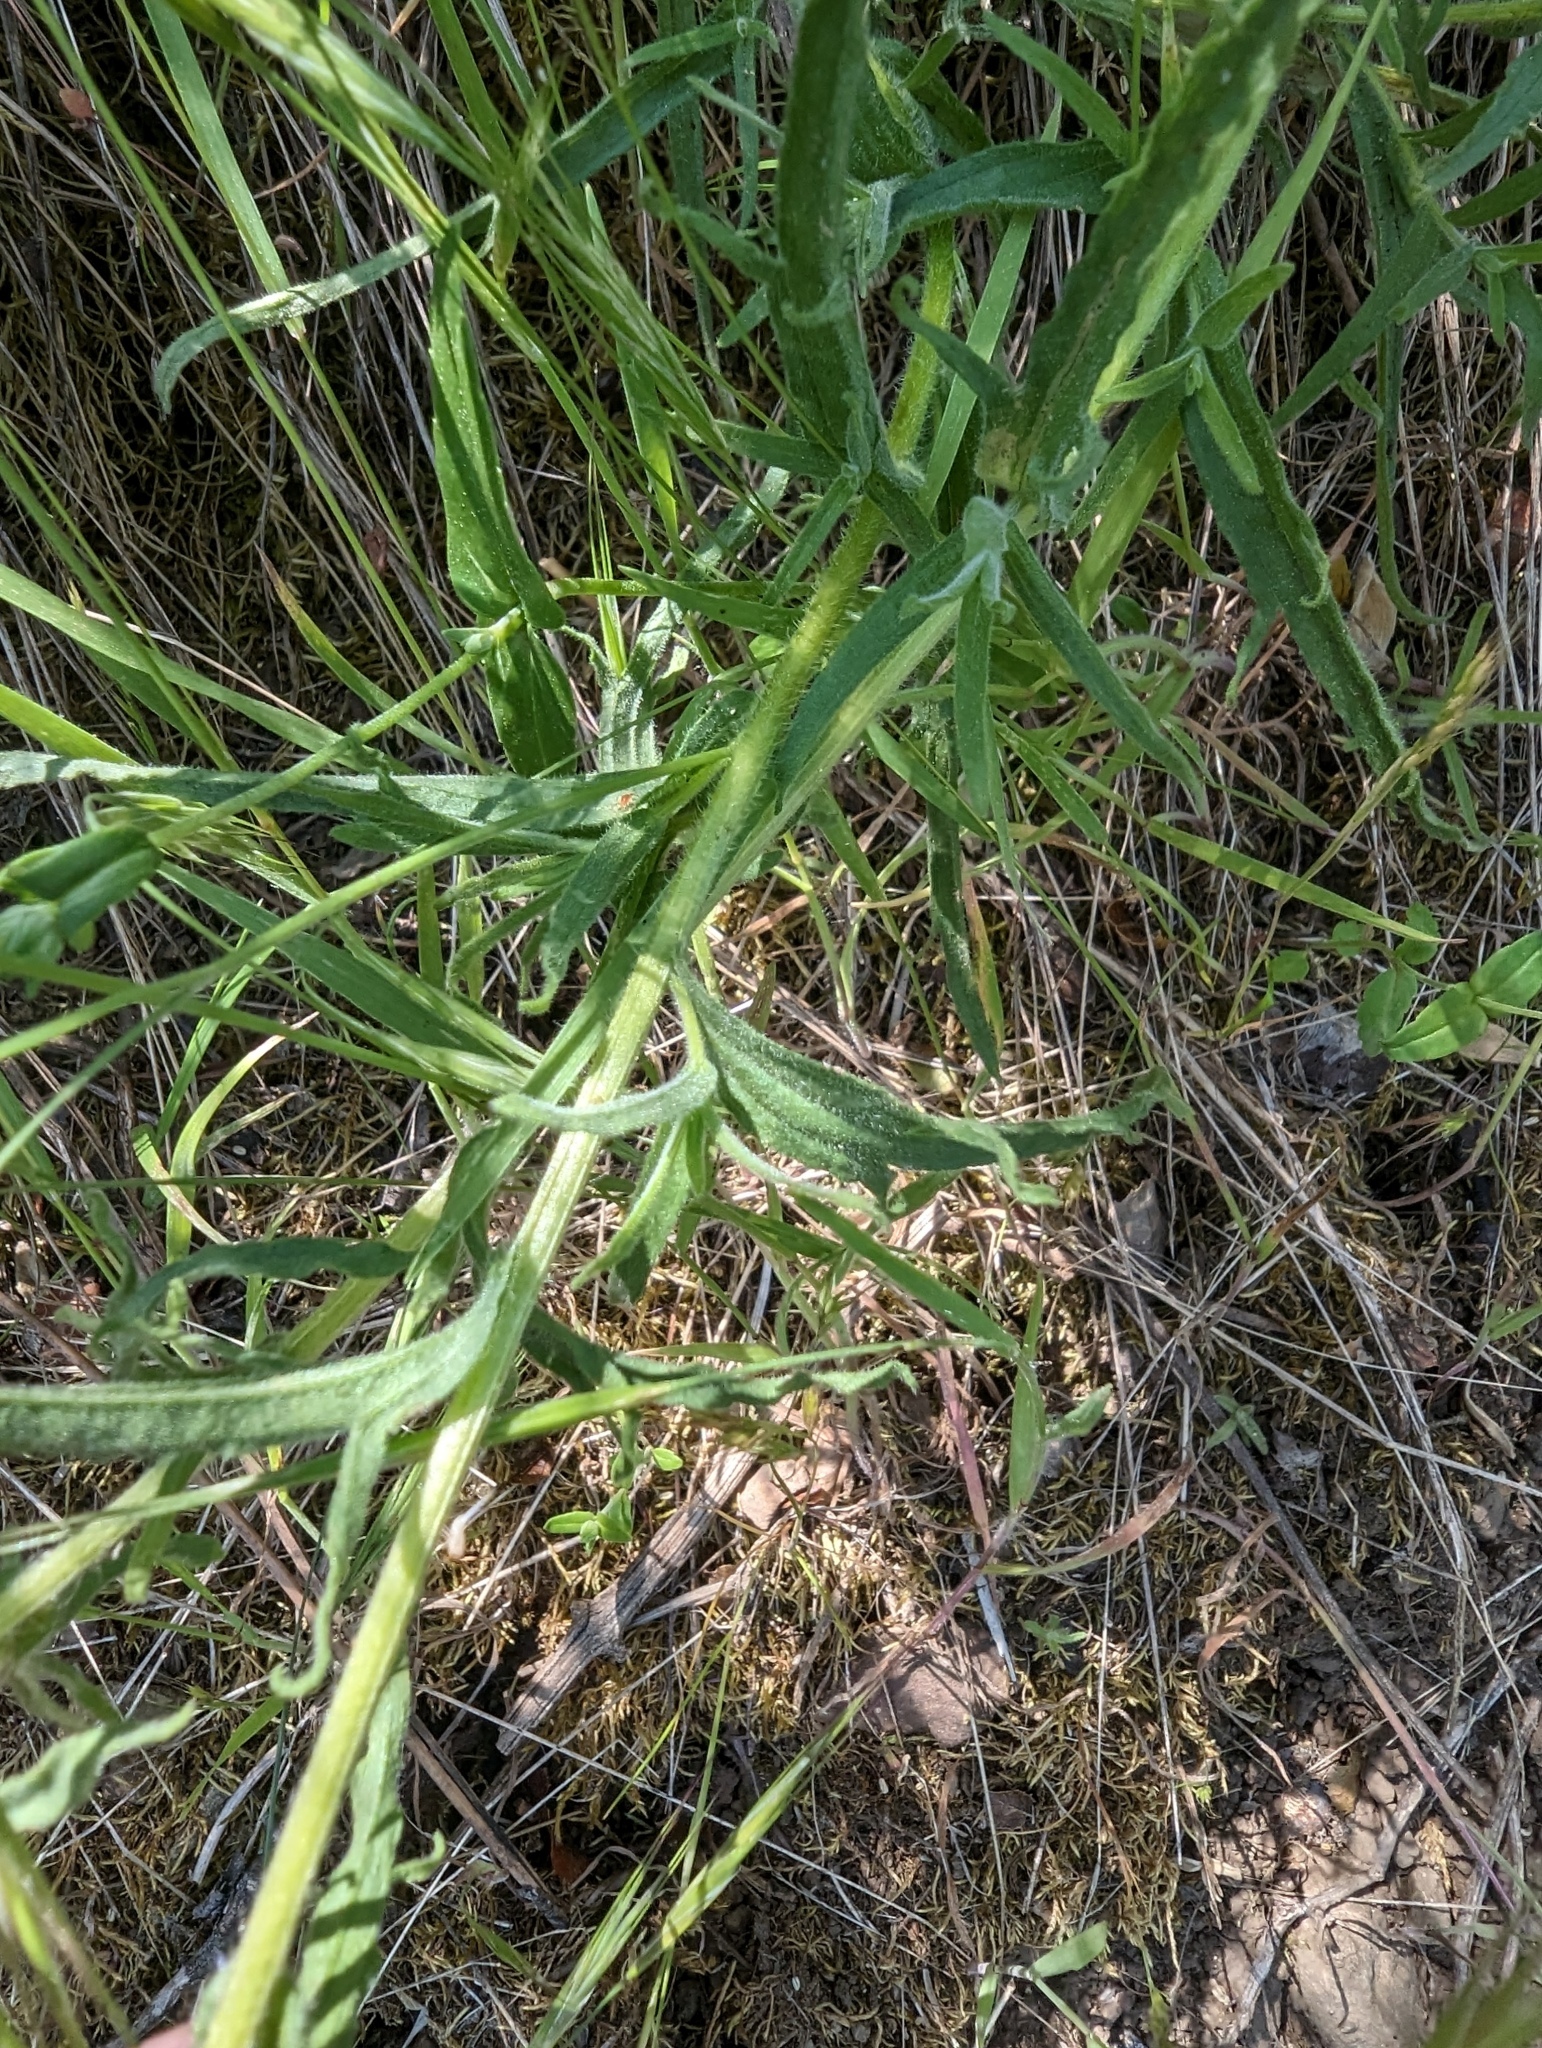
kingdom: Plantae
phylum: Tracheophyta
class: Magnoliopsida
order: Lamiales
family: Orobanchaceae
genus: Castilleja
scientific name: Castilleja affinis
